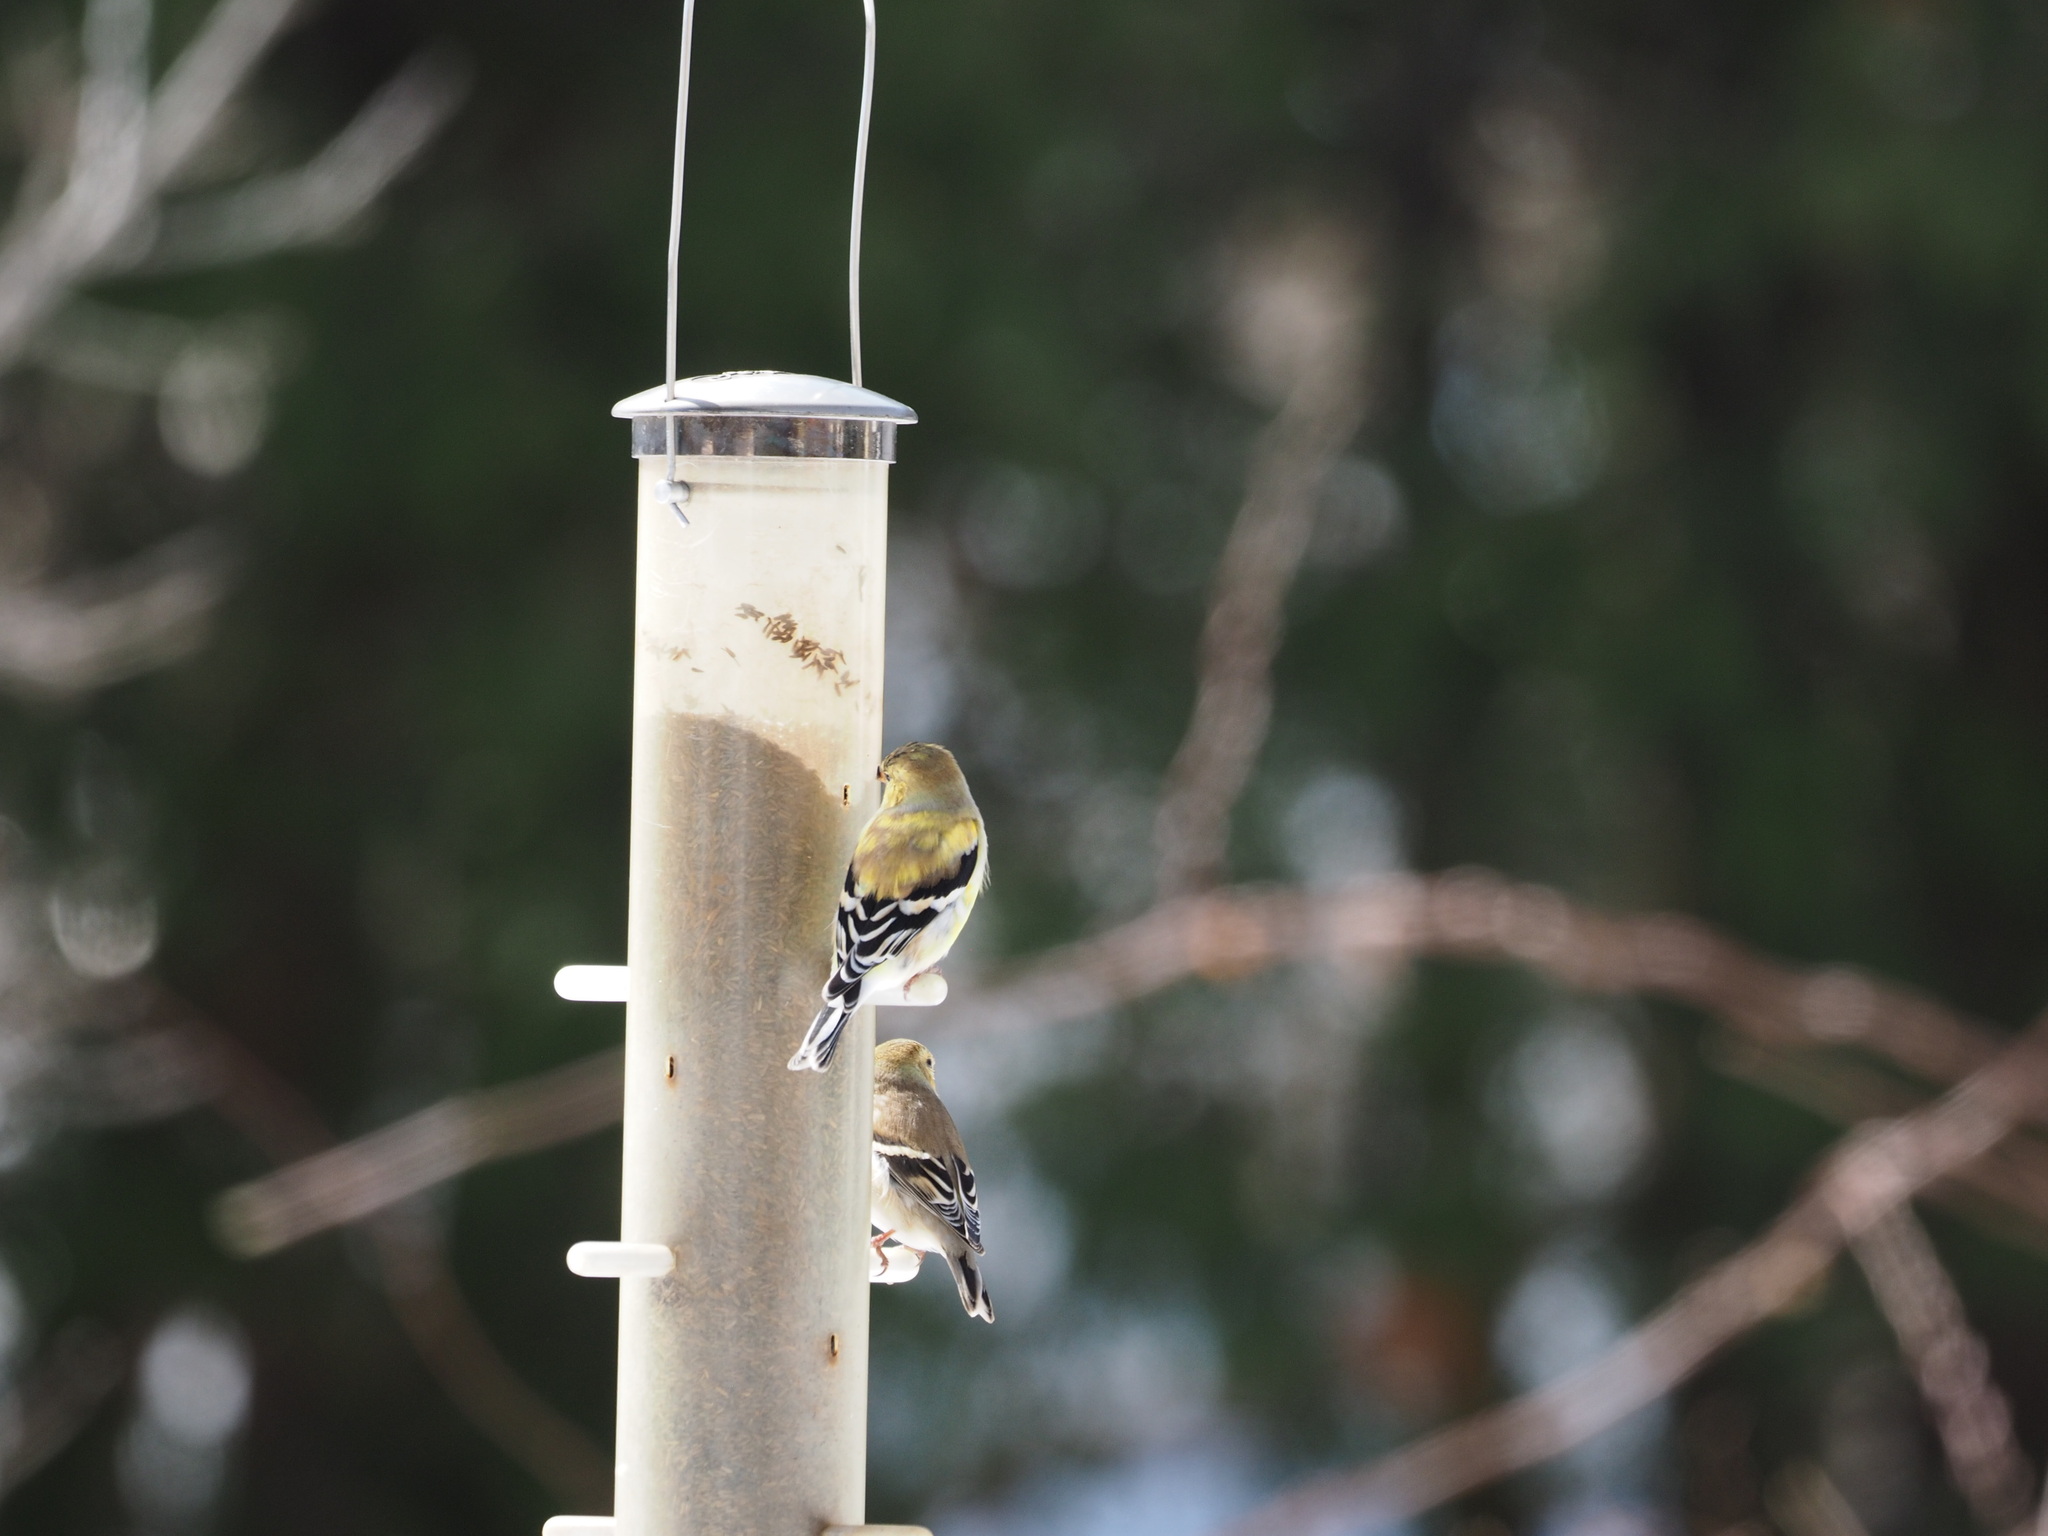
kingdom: Animalia
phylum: Chordata
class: Aves
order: Passeriformes
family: Fringillidae
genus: Spinus
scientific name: Spinus tristis
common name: American goldfinch
